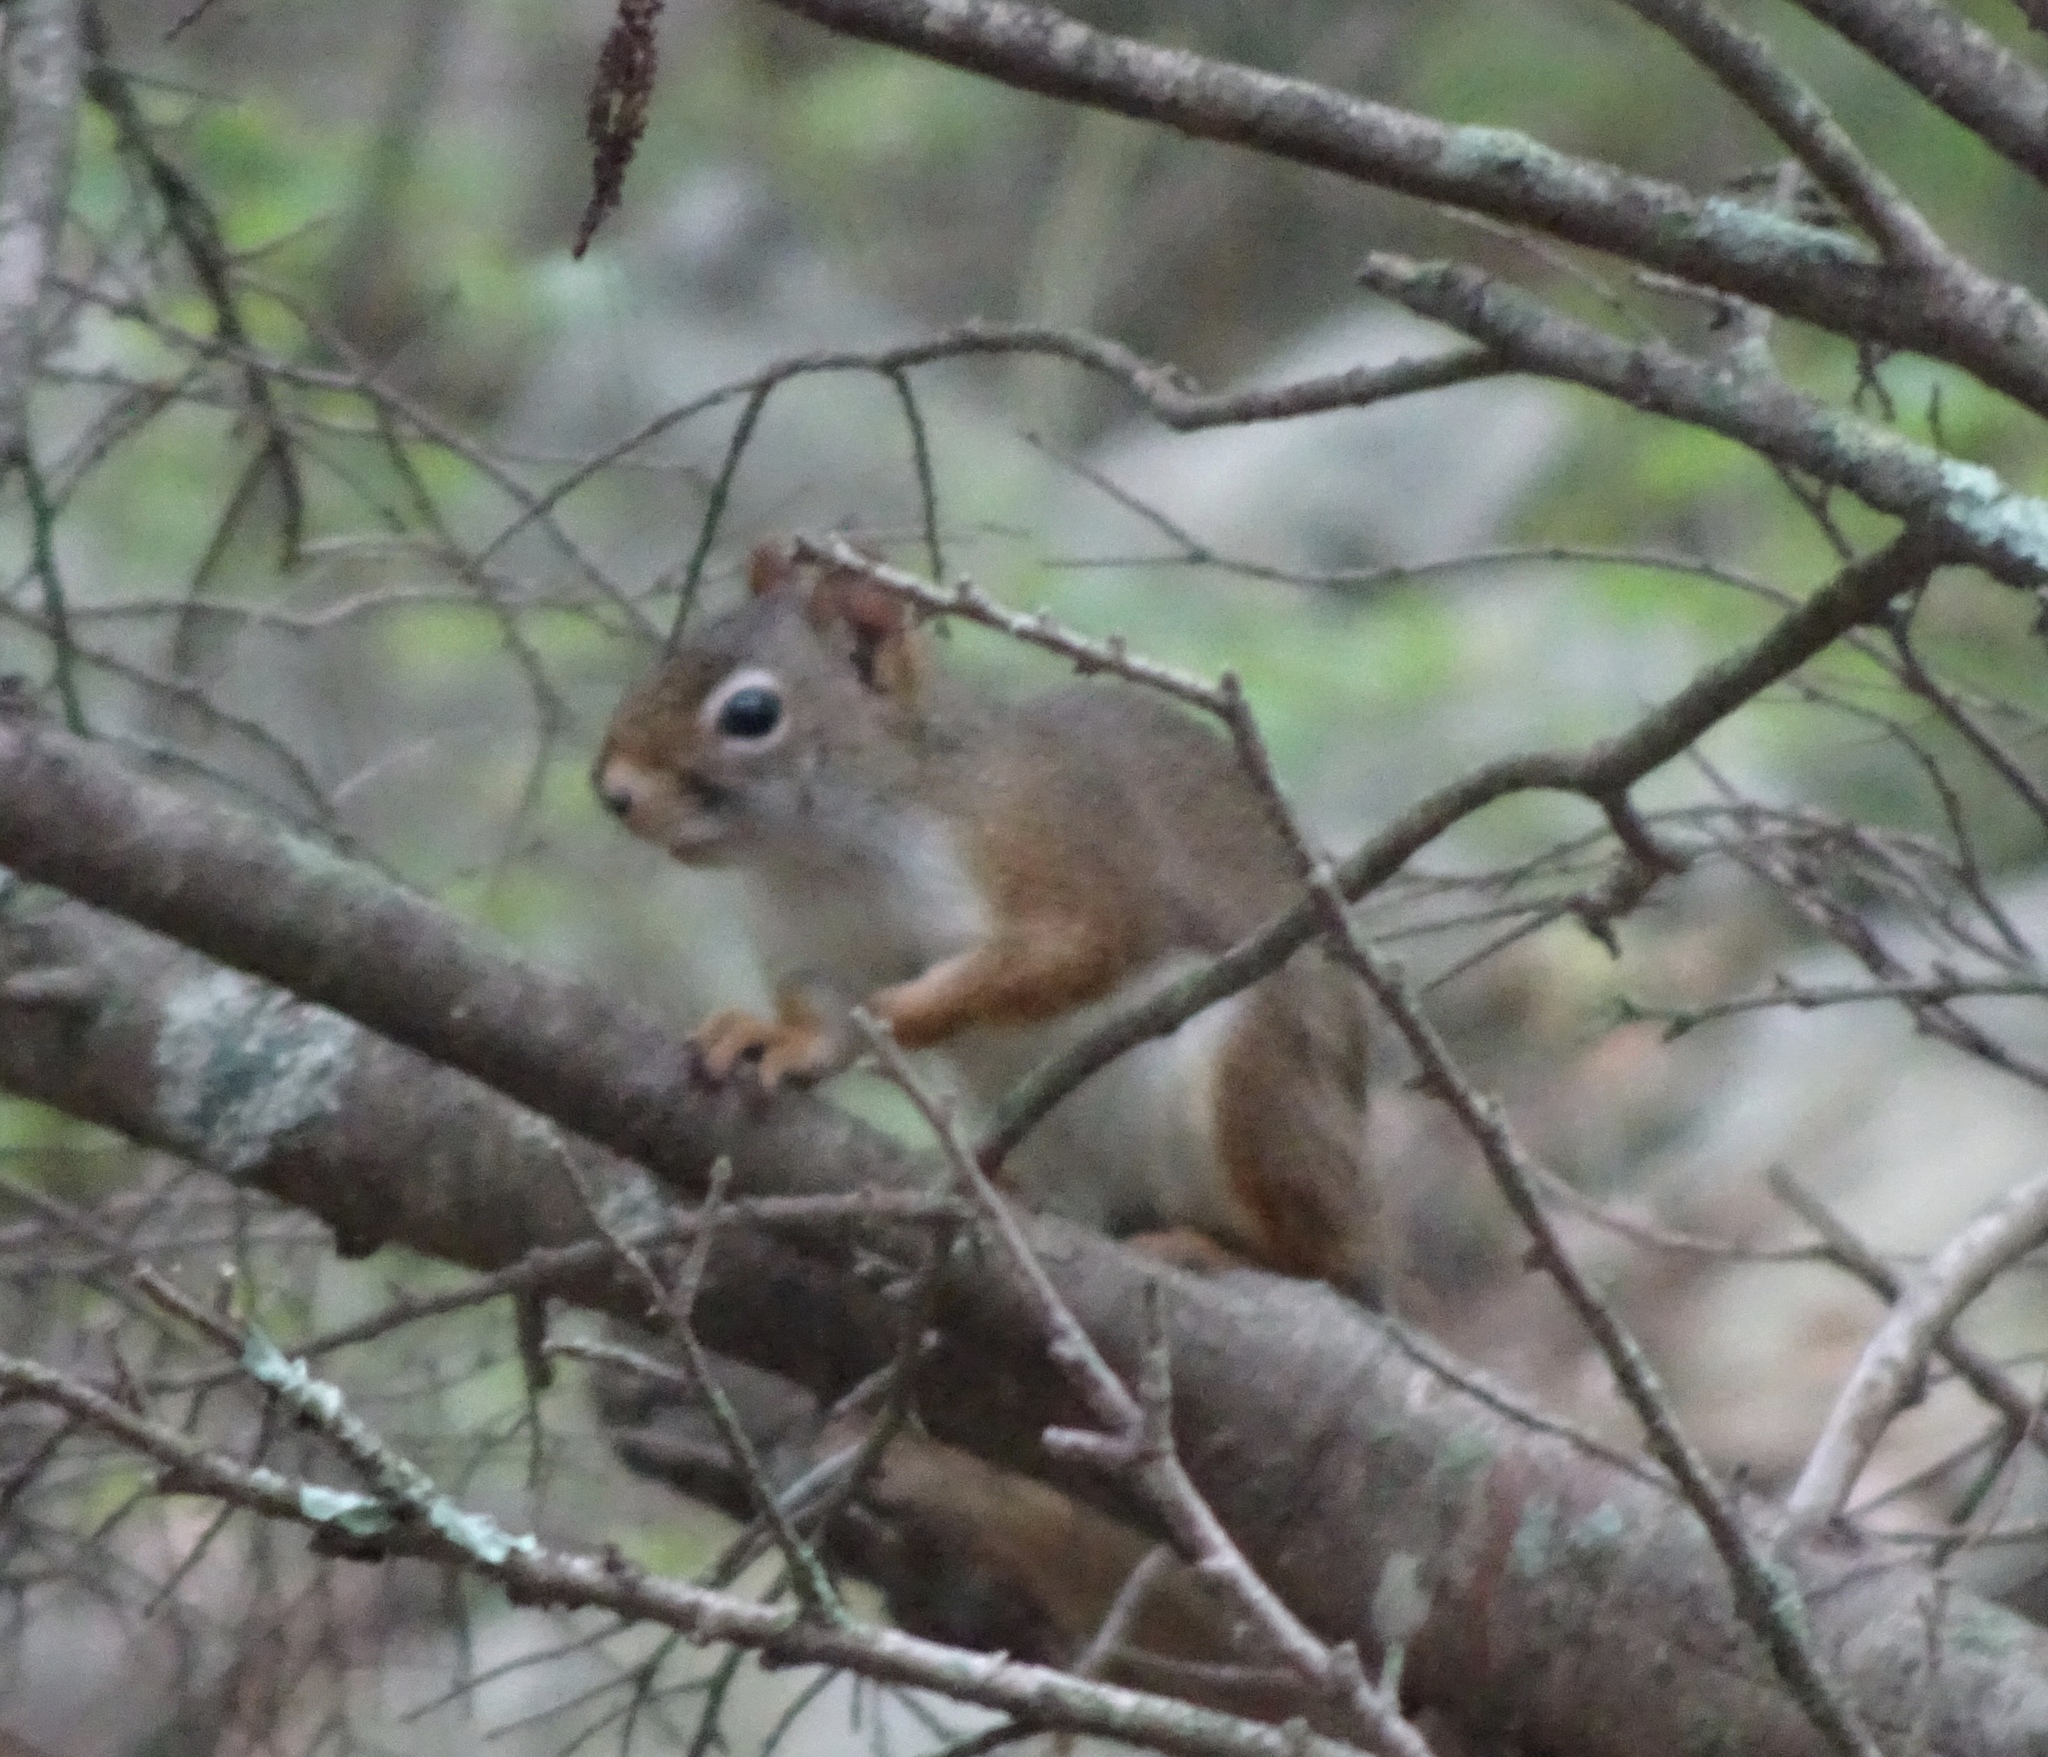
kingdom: Animalia
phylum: Chordata
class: Mammalia
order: Rodentia
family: Sciuridae
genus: Tamiasciurus
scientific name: Tamiasciurus hudsonicus
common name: Red squirrel
